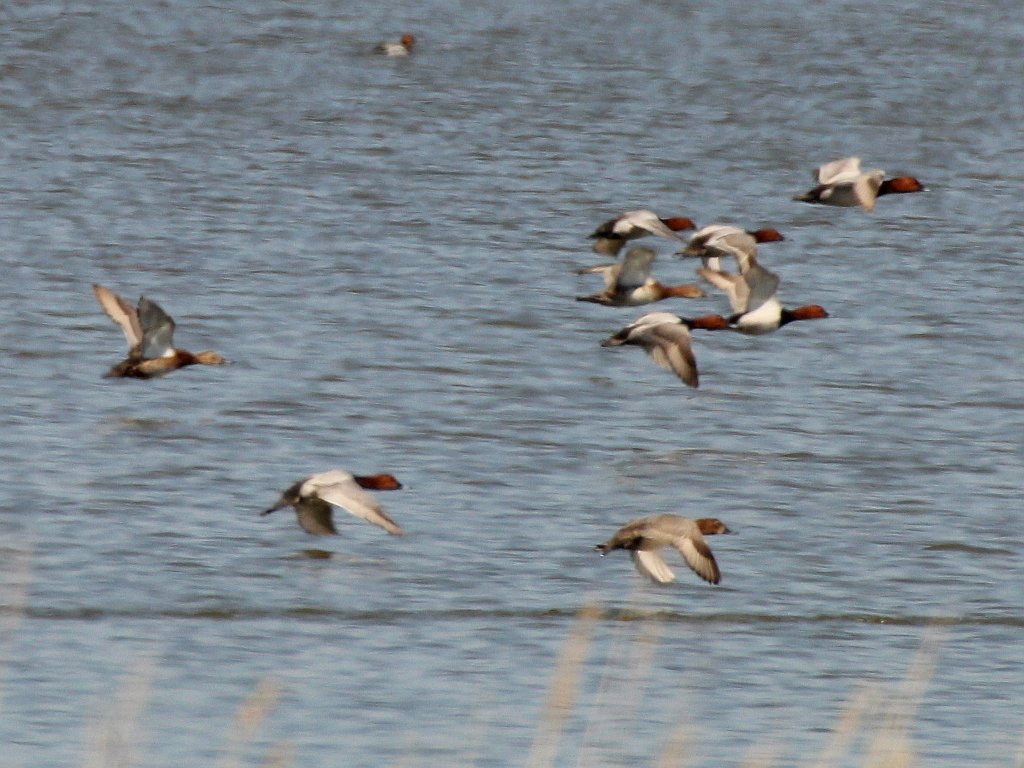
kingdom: Animalia
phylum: Chordata
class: Aves
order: Anseriformes
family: Anatidae
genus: Aythya
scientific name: Aythya ferina
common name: Common pochard
